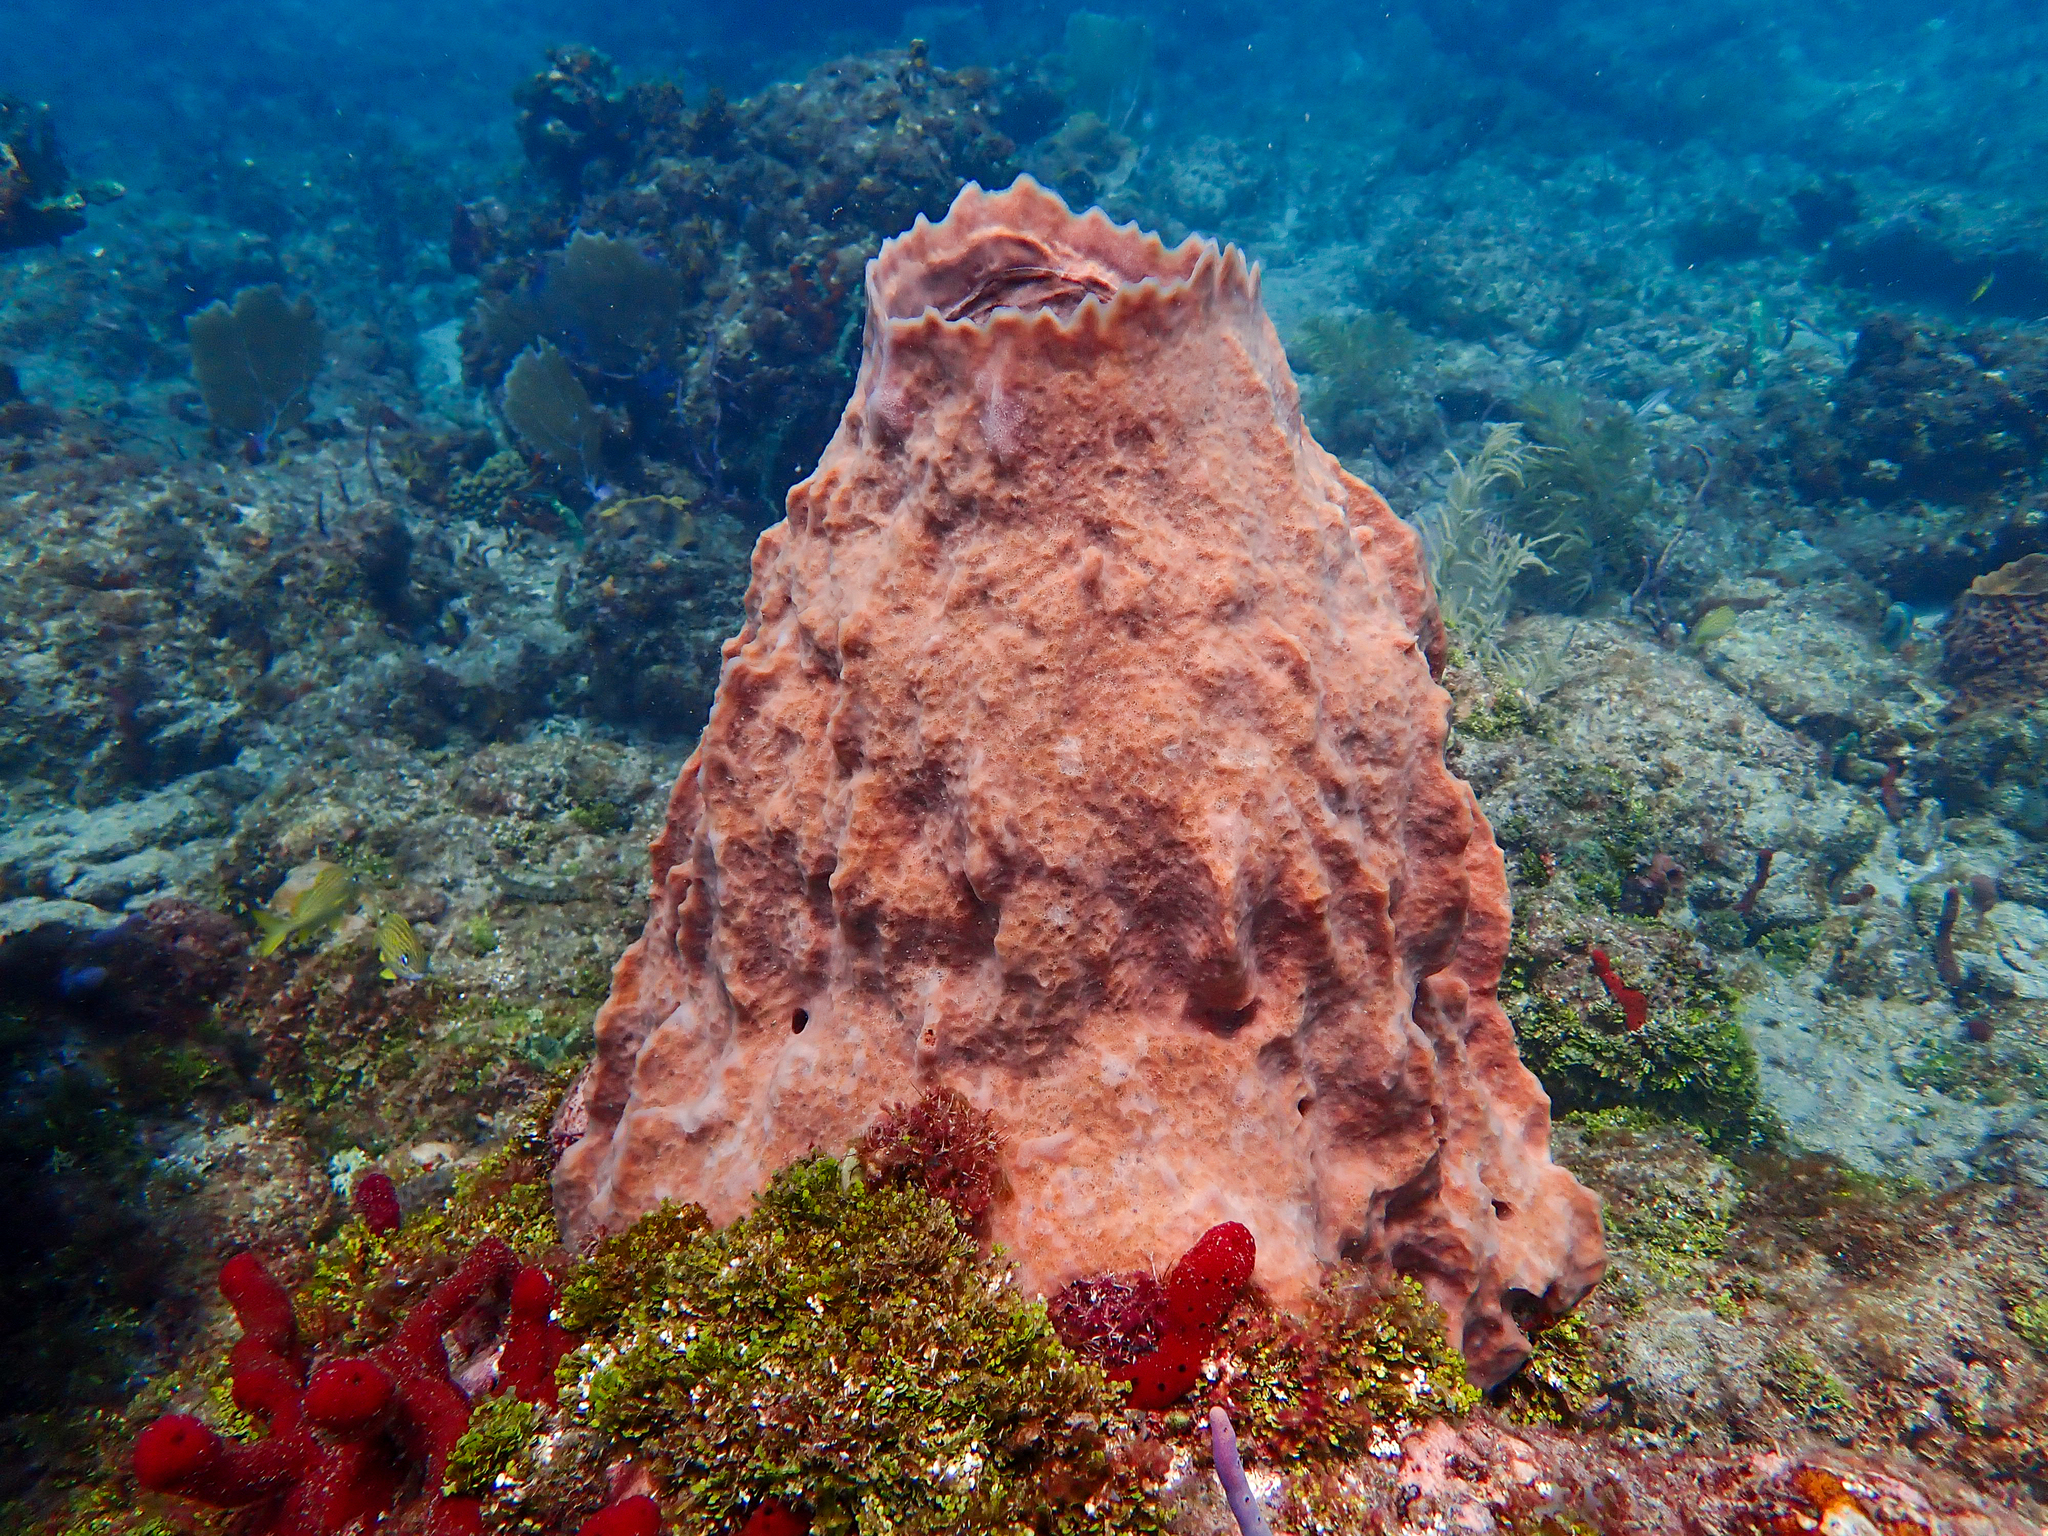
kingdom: Animalia
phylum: Porifera
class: Demospongiae
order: Haplosclerida
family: Petrosiidae
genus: Xestospongia
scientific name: Xestospongia muta
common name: Giant barrel sponge
